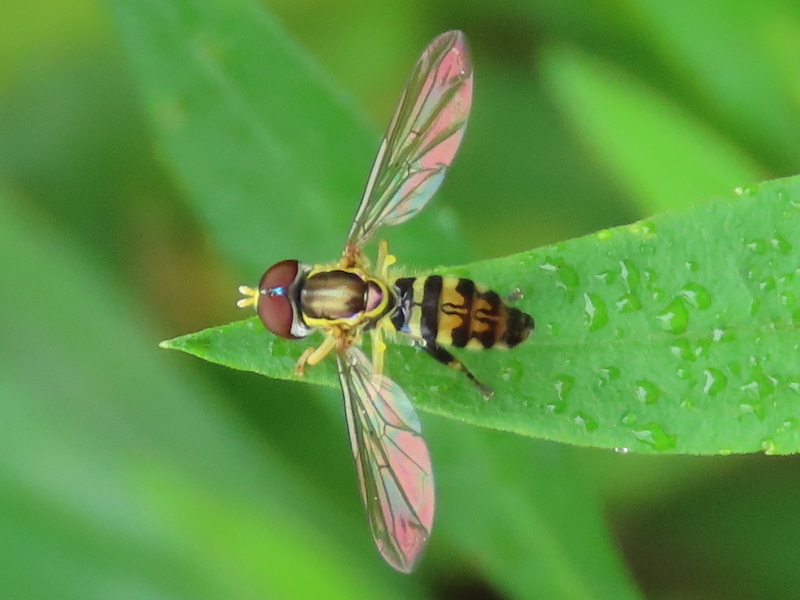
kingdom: Animalia
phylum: Arthropoda
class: Insecta
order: Diptera
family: Syrphidae
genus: Toxomerus
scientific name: Toxomerus geminatus
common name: Eastern calligrapher
